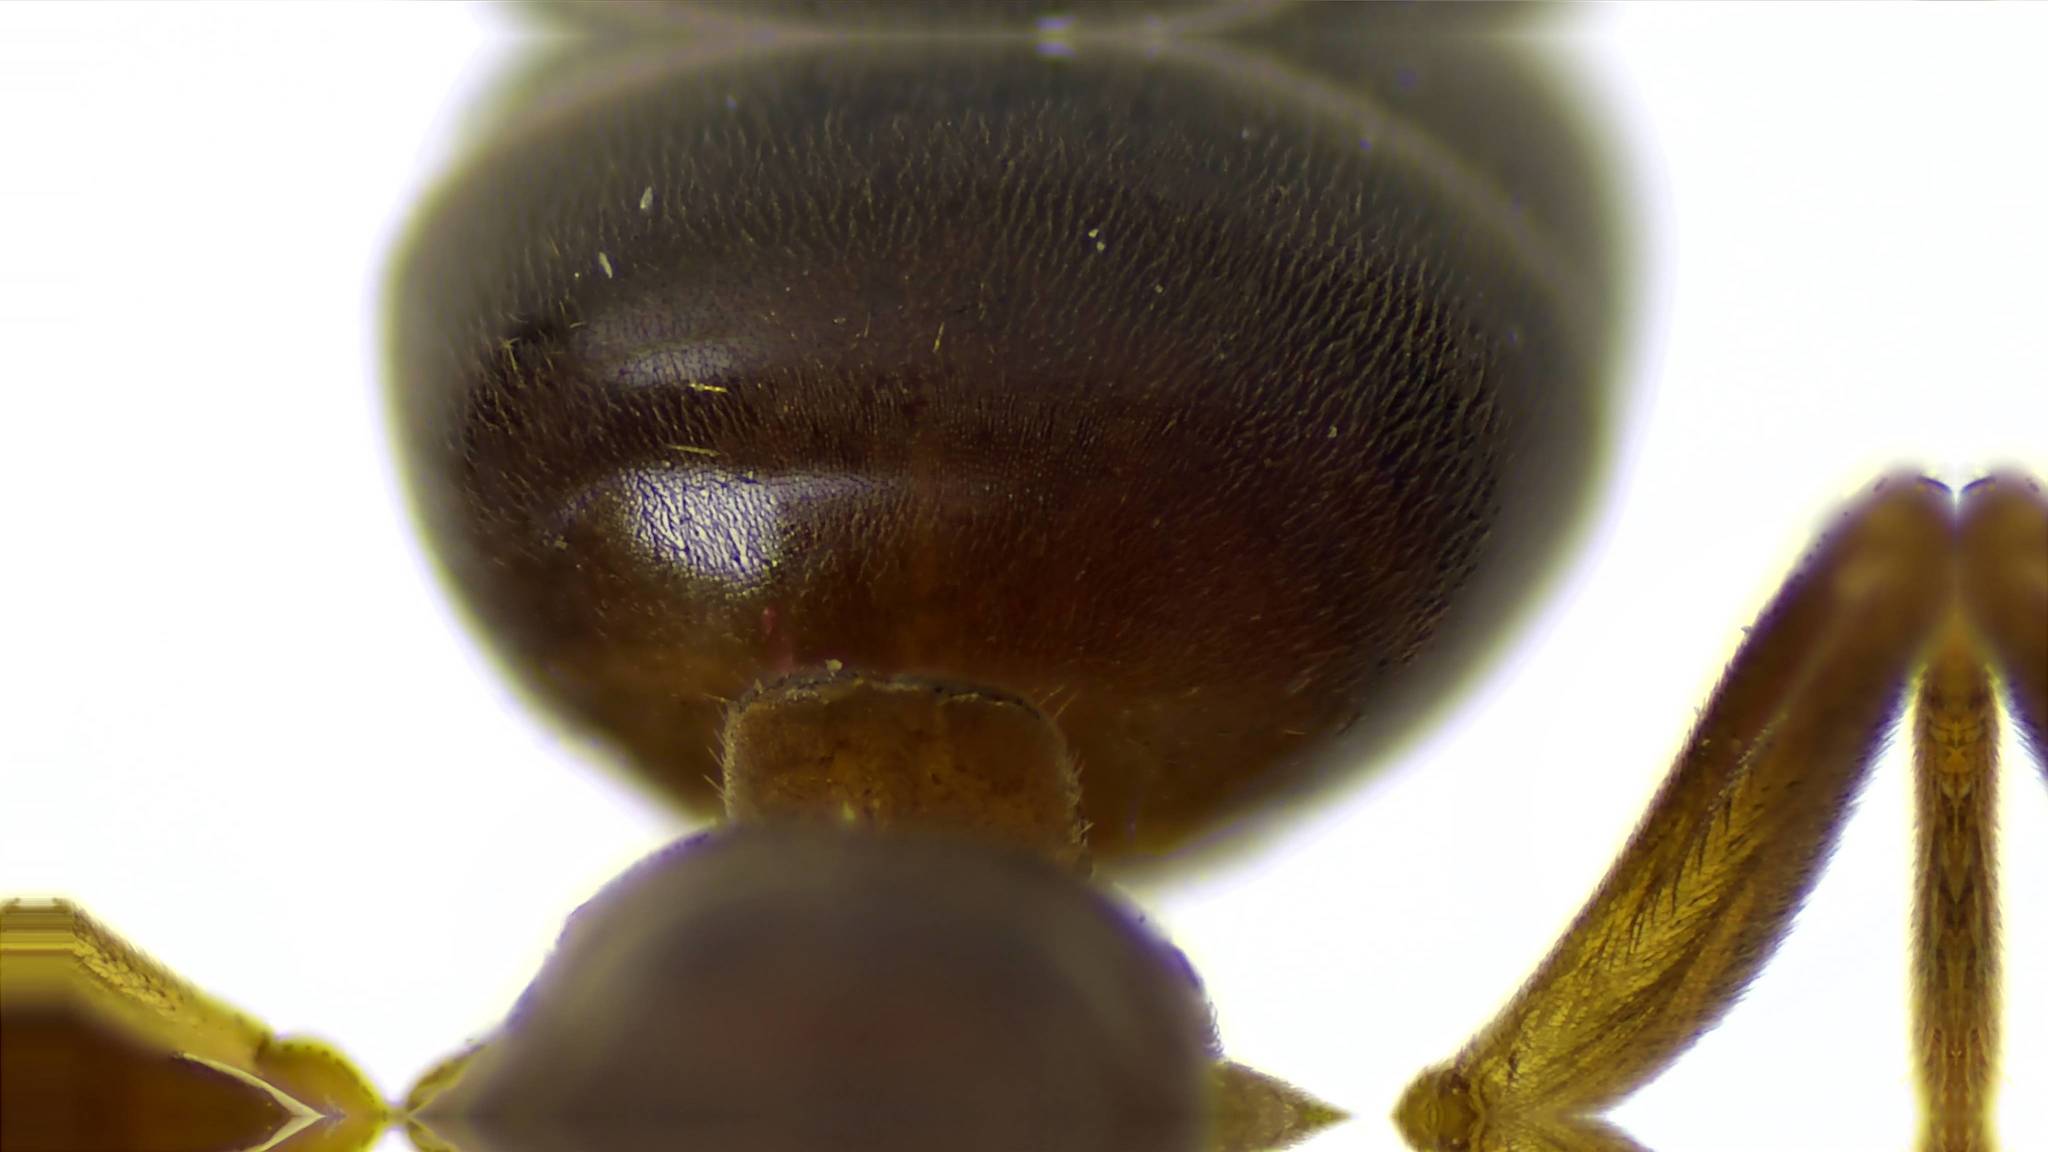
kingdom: Animalia
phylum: Arthropoda
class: Insecta
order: Hymenoptera
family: Formicidae
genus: Lasius
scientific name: Lasius aphidicola
